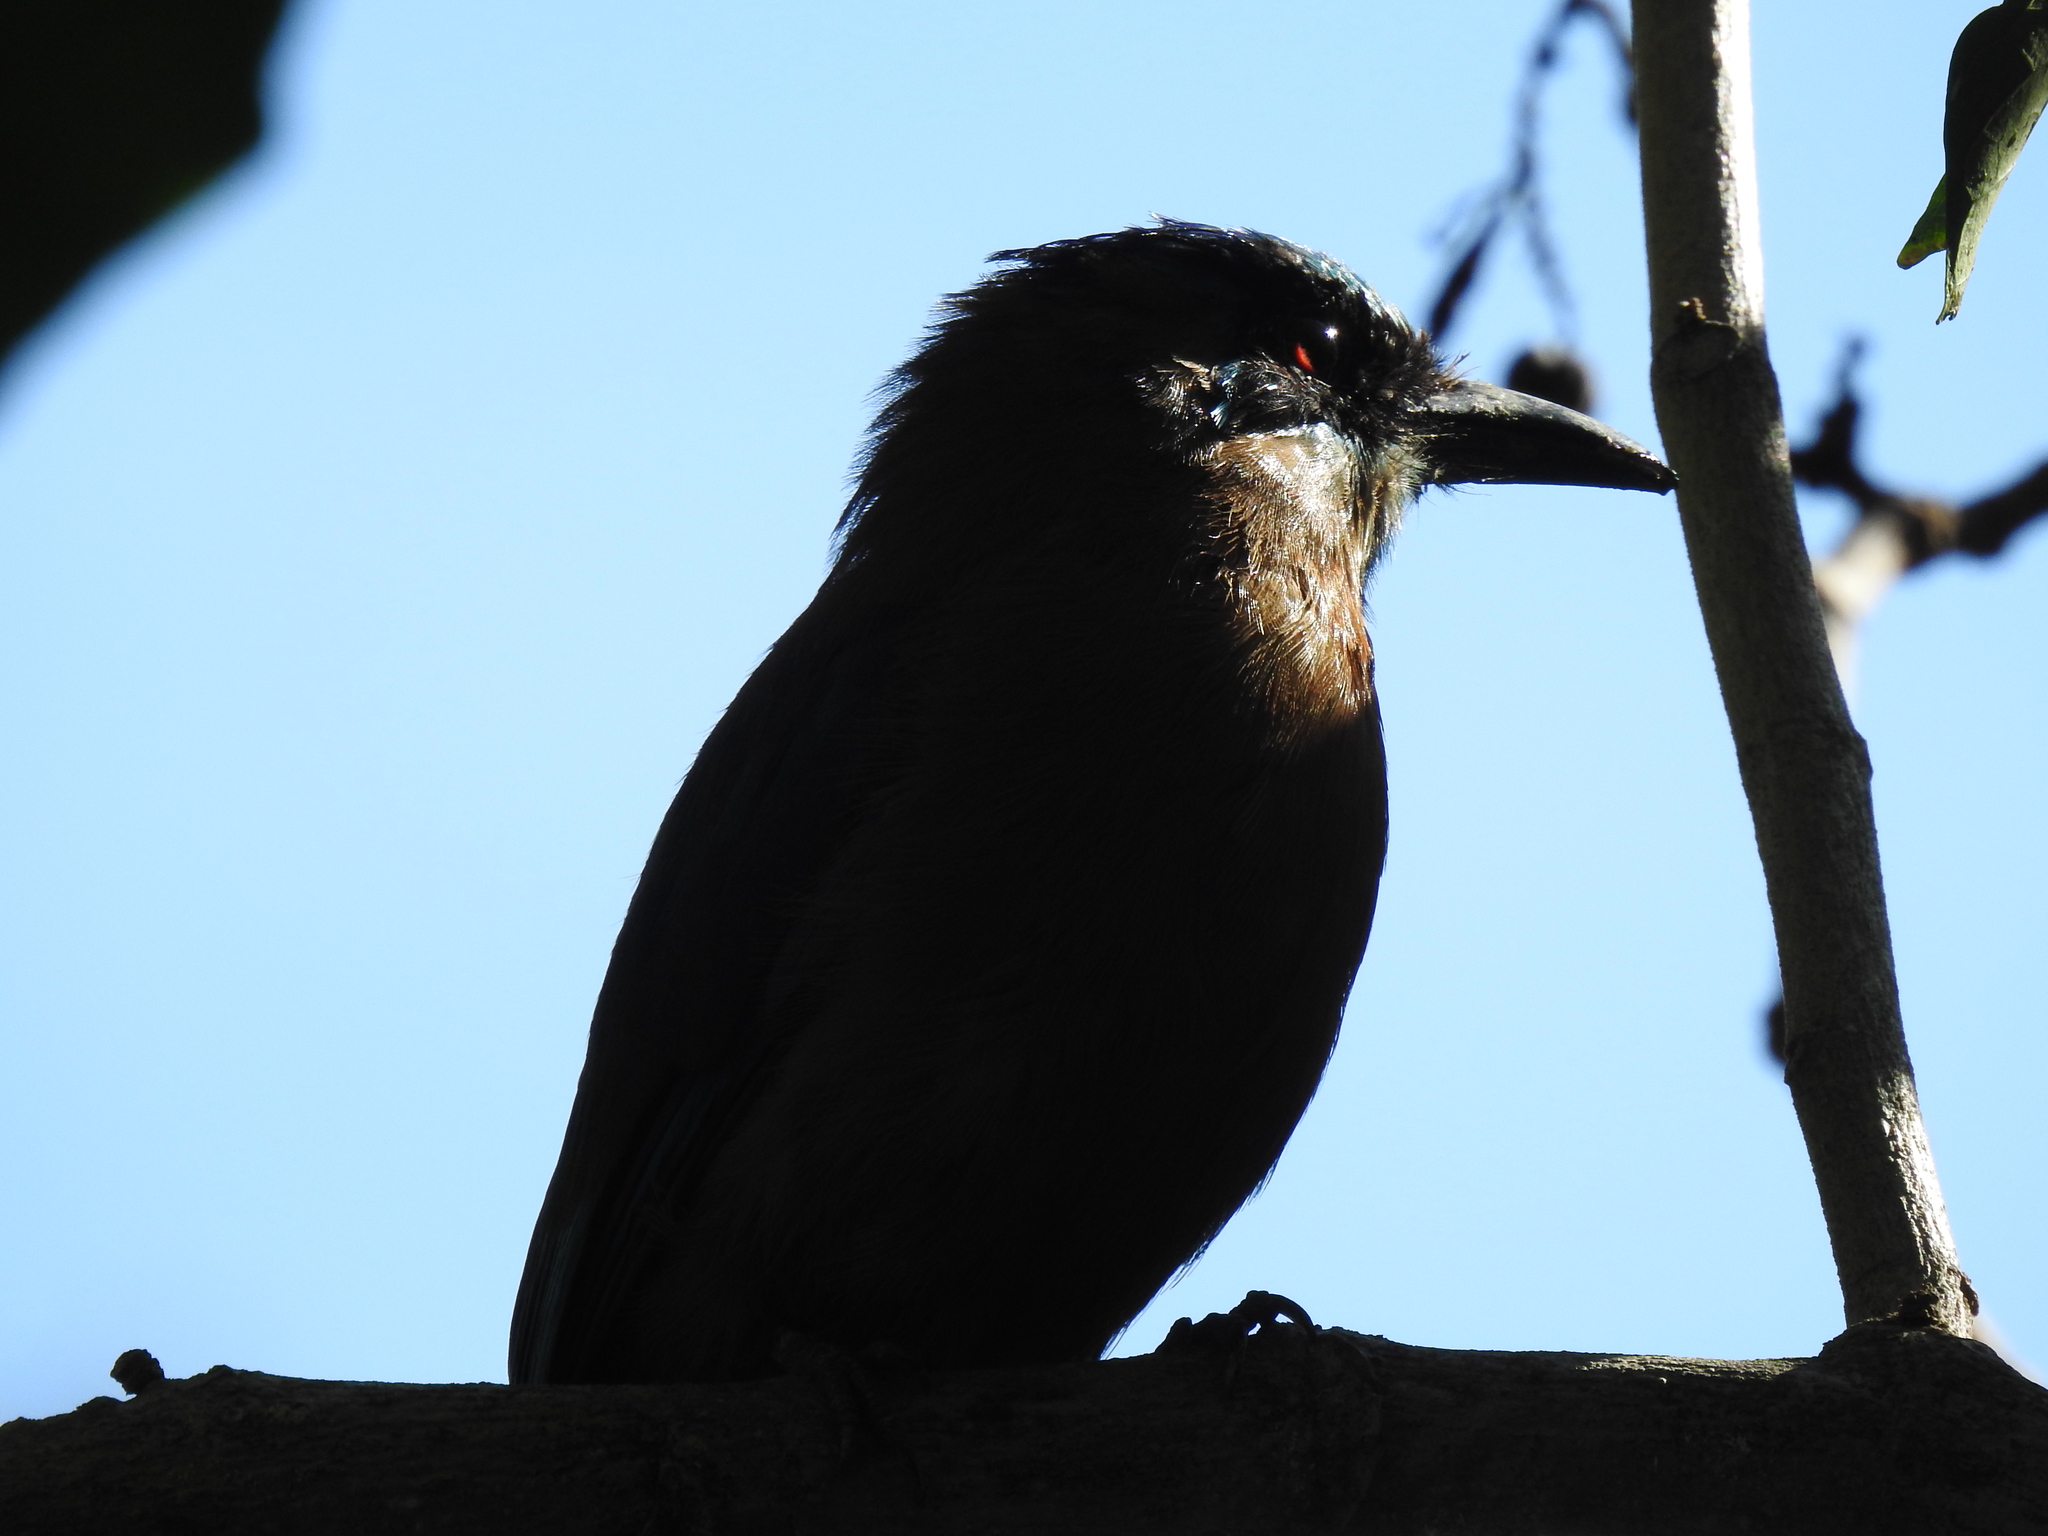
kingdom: Animalia
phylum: Chordata
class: Aves
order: Coraciiformes
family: Momotidae
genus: Momotus
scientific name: Momotus lessonii
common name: Lesson's motmot
